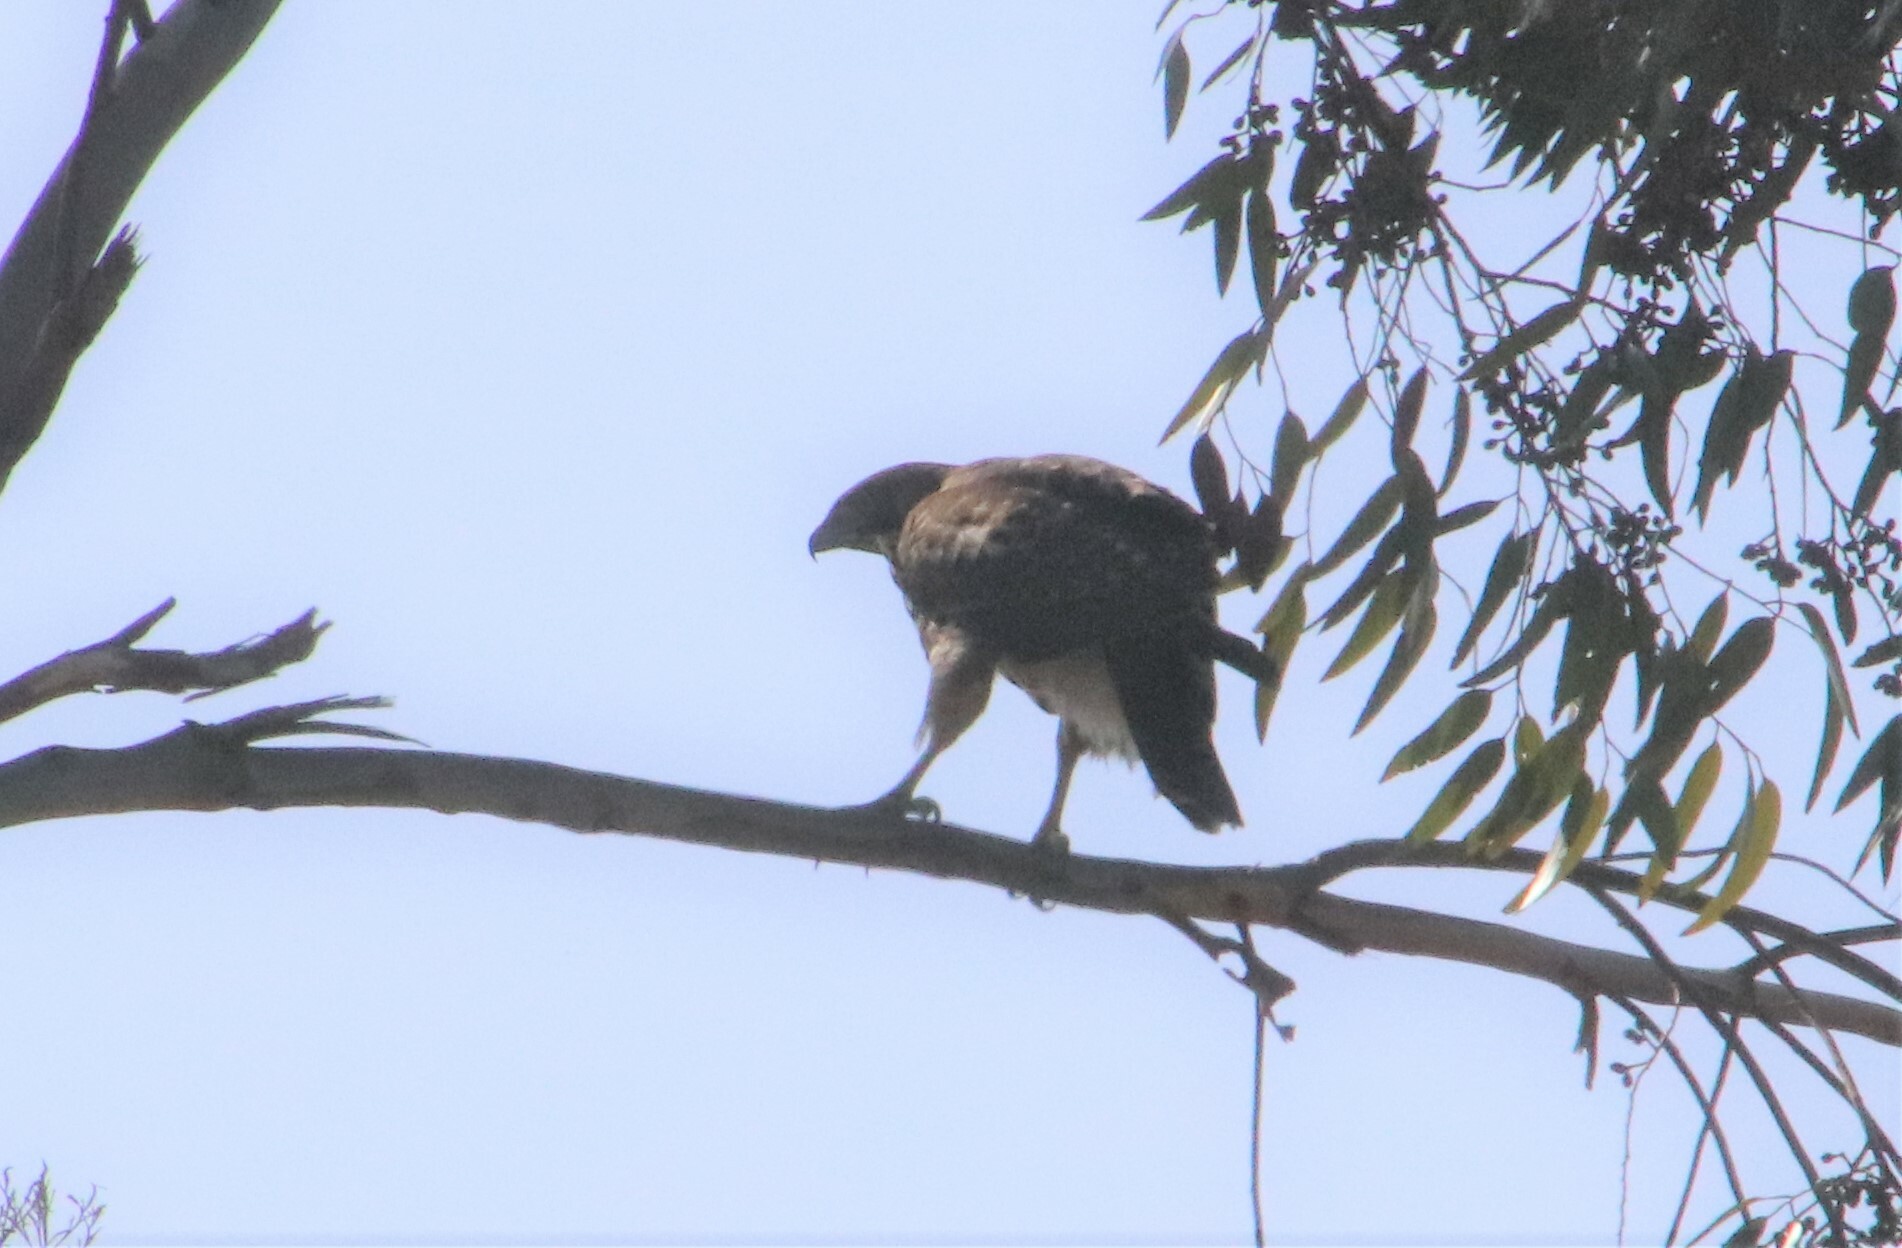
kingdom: Animalia
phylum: Chordata
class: Aves
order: Accipitriformes
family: Accipitridae
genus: Buteo
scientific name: Buteo jamaicensis
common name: Red-tailed hawk
